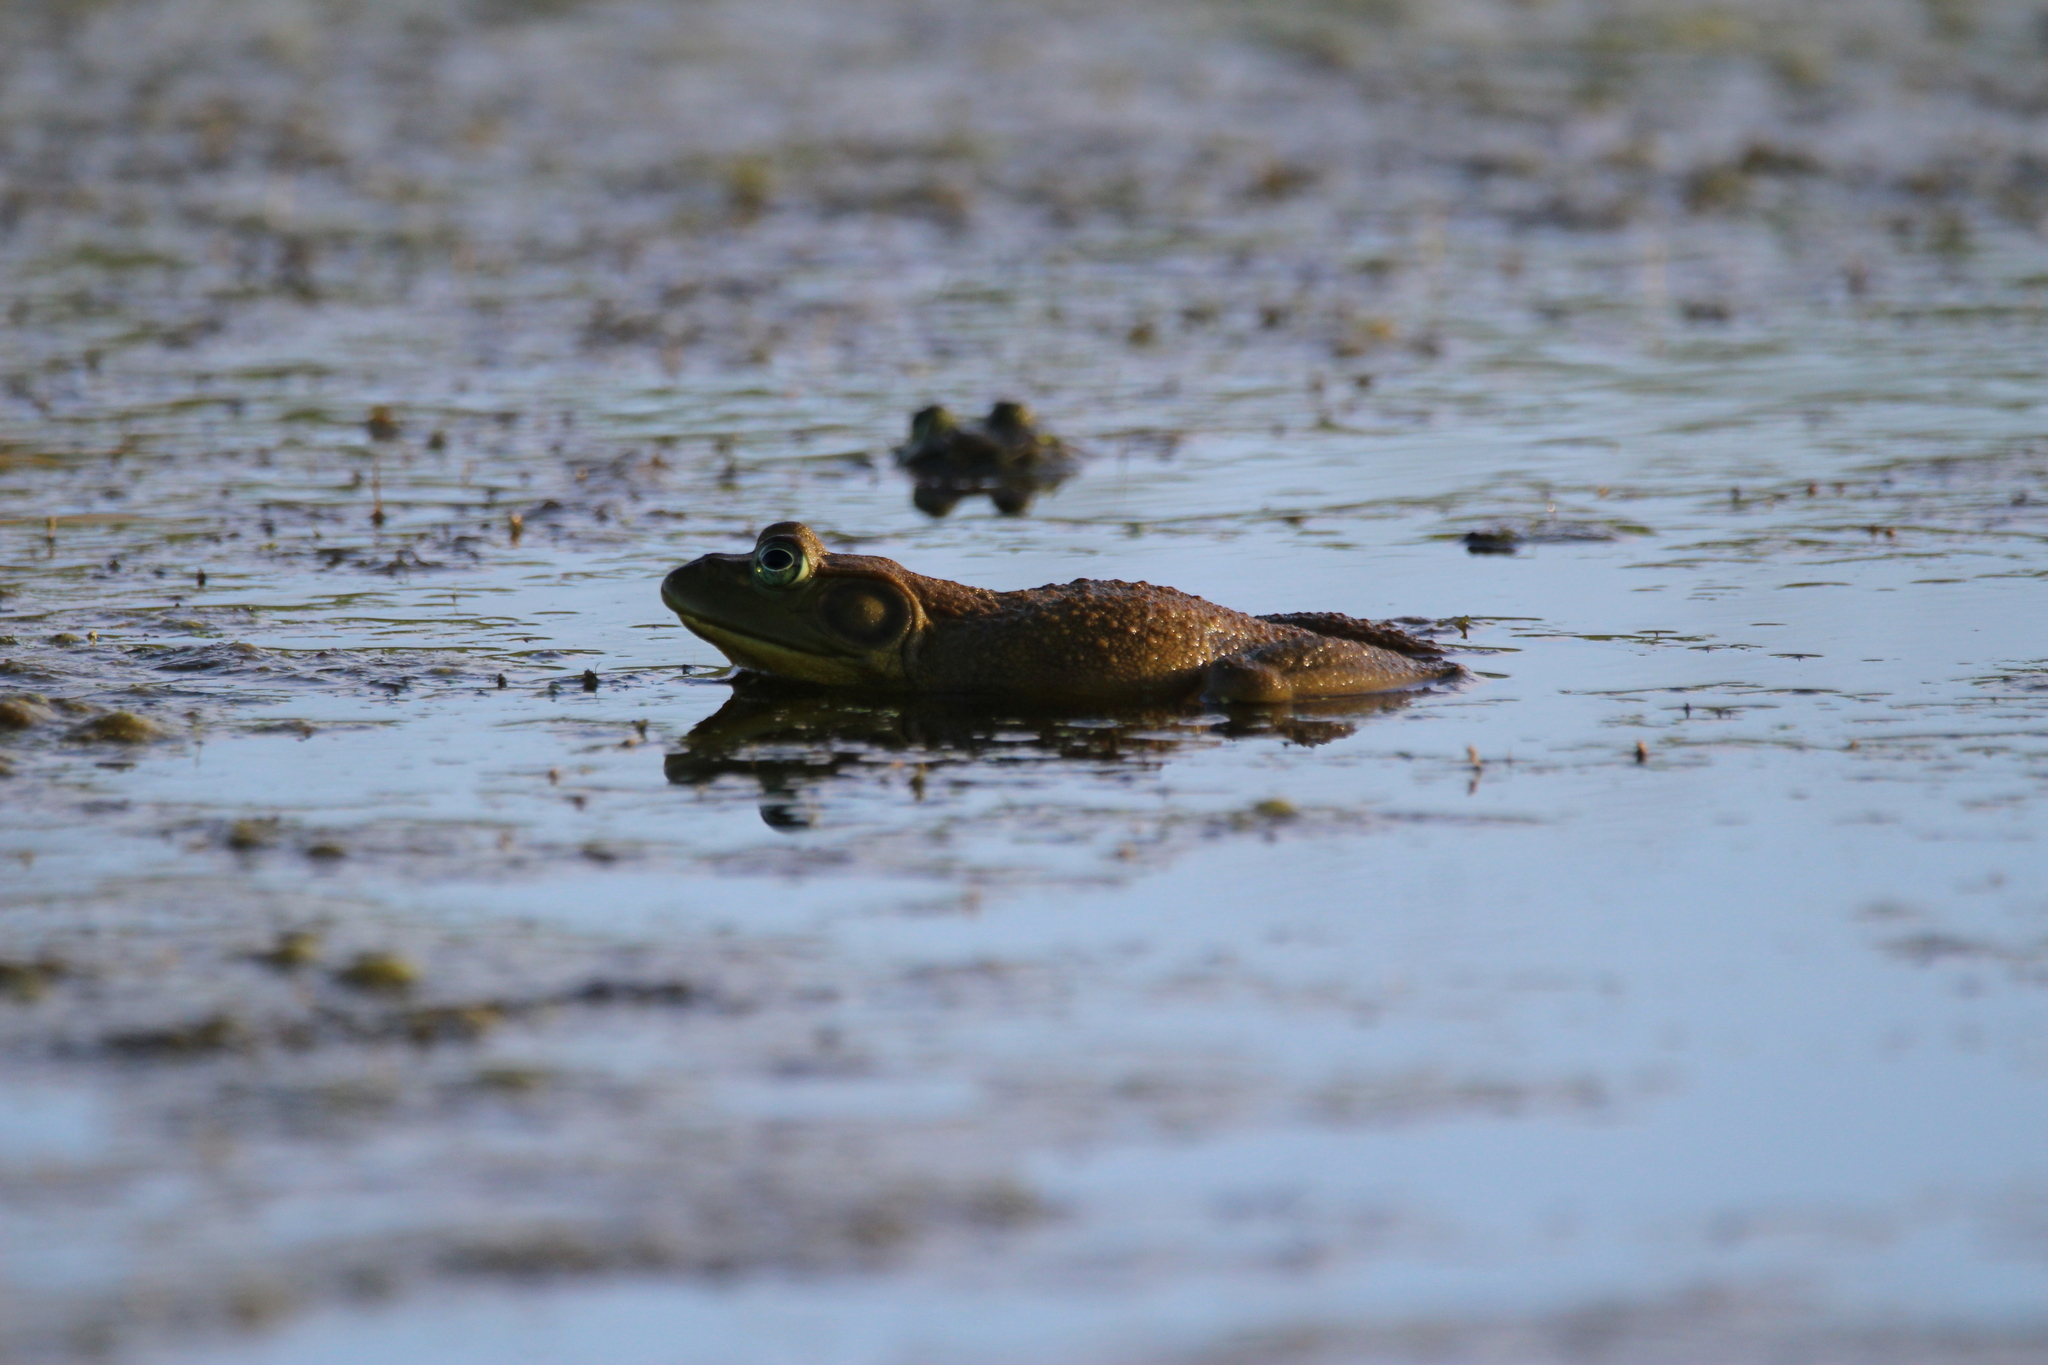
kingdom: Animalia
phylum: Chordata
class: Amphibia
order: Anura
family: Ranidae
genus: Lithobates
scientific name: Lithobates catesbeianus
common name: American bullfrog
